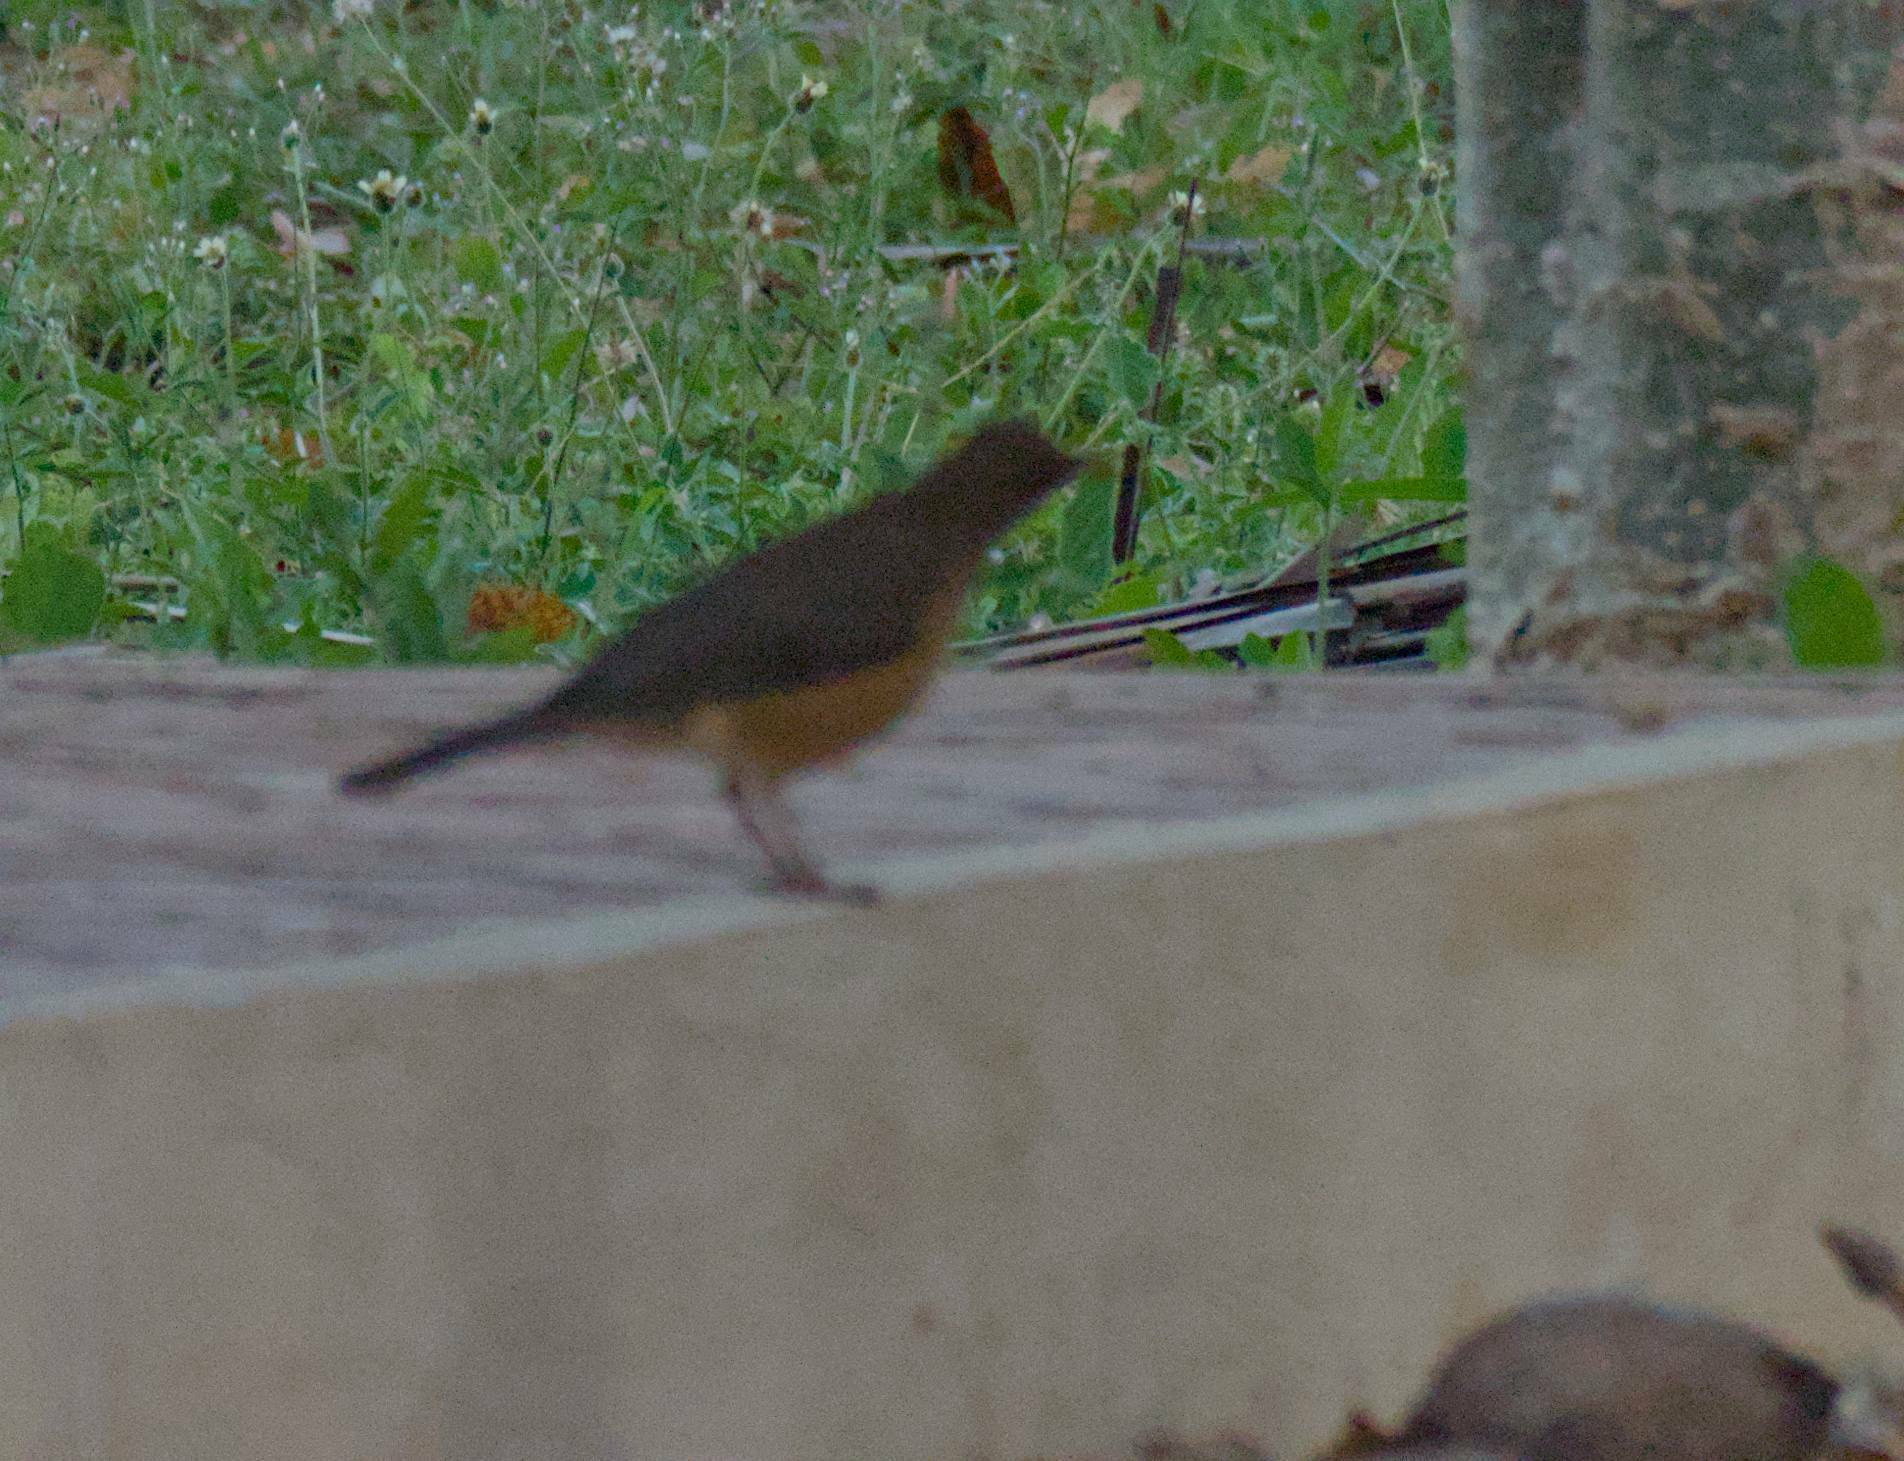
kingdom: Animalia
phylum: Chordata
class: Aves
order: Passeriformes
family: Turdidae
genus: Turdus
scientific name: Turdus grayi
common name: Clay-colored thrush
